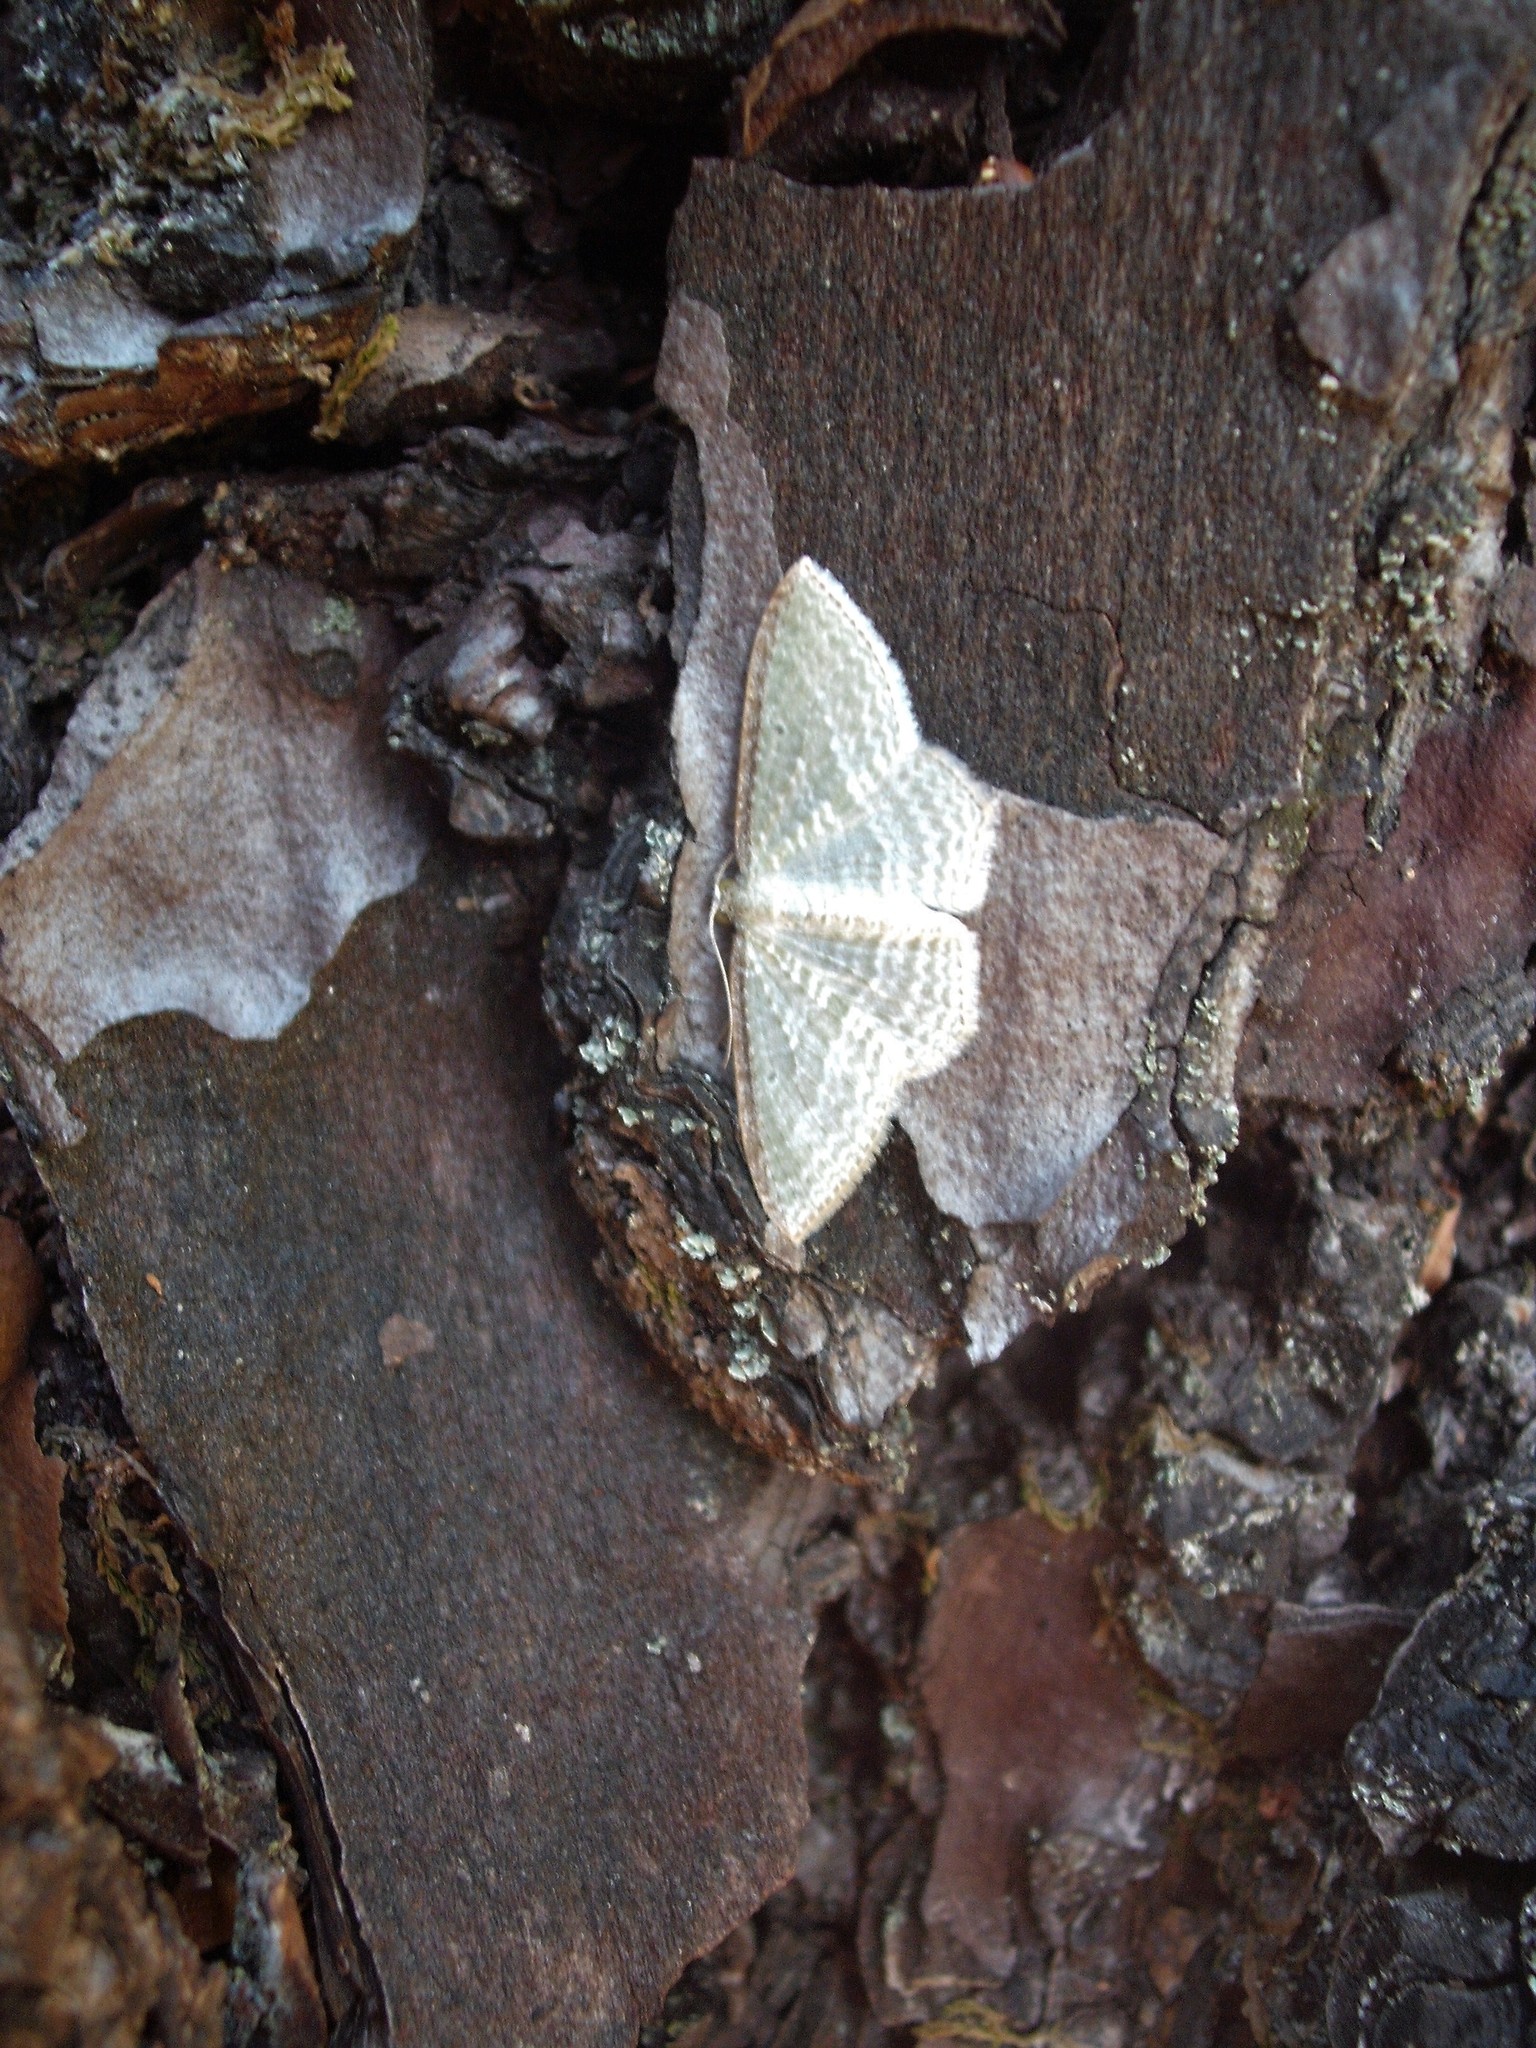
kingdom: Animalia
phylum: Arthropoda
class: Insecta
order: Lepidoptera
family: Geometridae
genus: Poecilasthena
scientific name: Poecilasthena pulchraria
